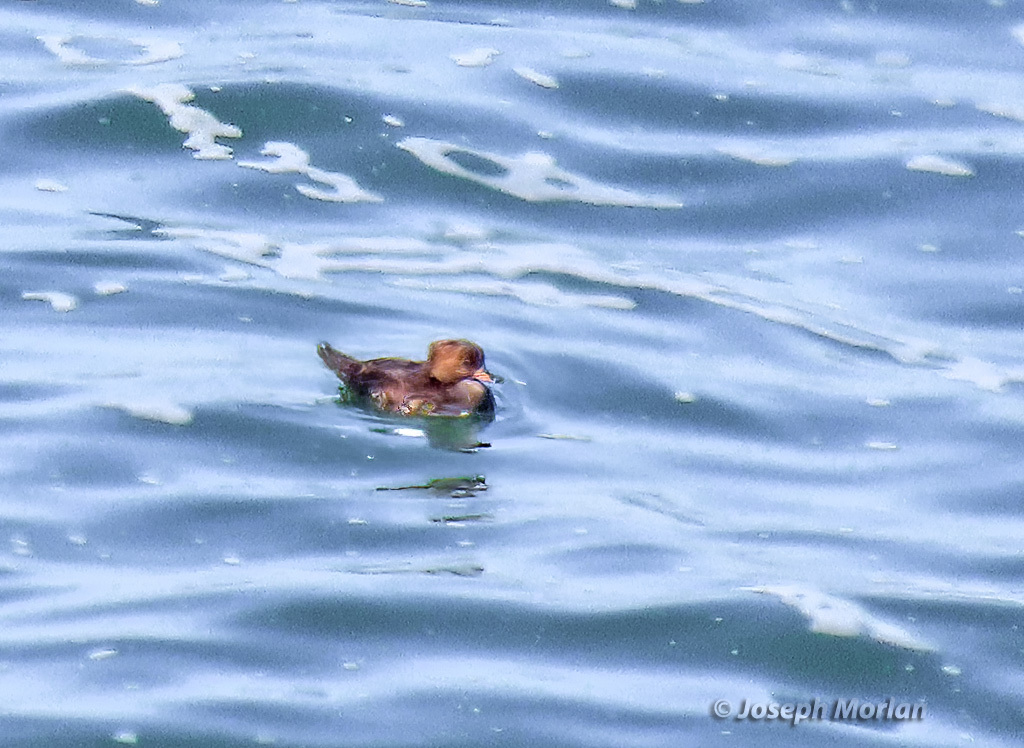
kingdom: Animalia
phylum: Chordata
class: Aves
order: Anseriformes
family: Anatidae
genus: Lophodytes
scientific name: Lophodytes cucullatus
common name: Hooded merganser
